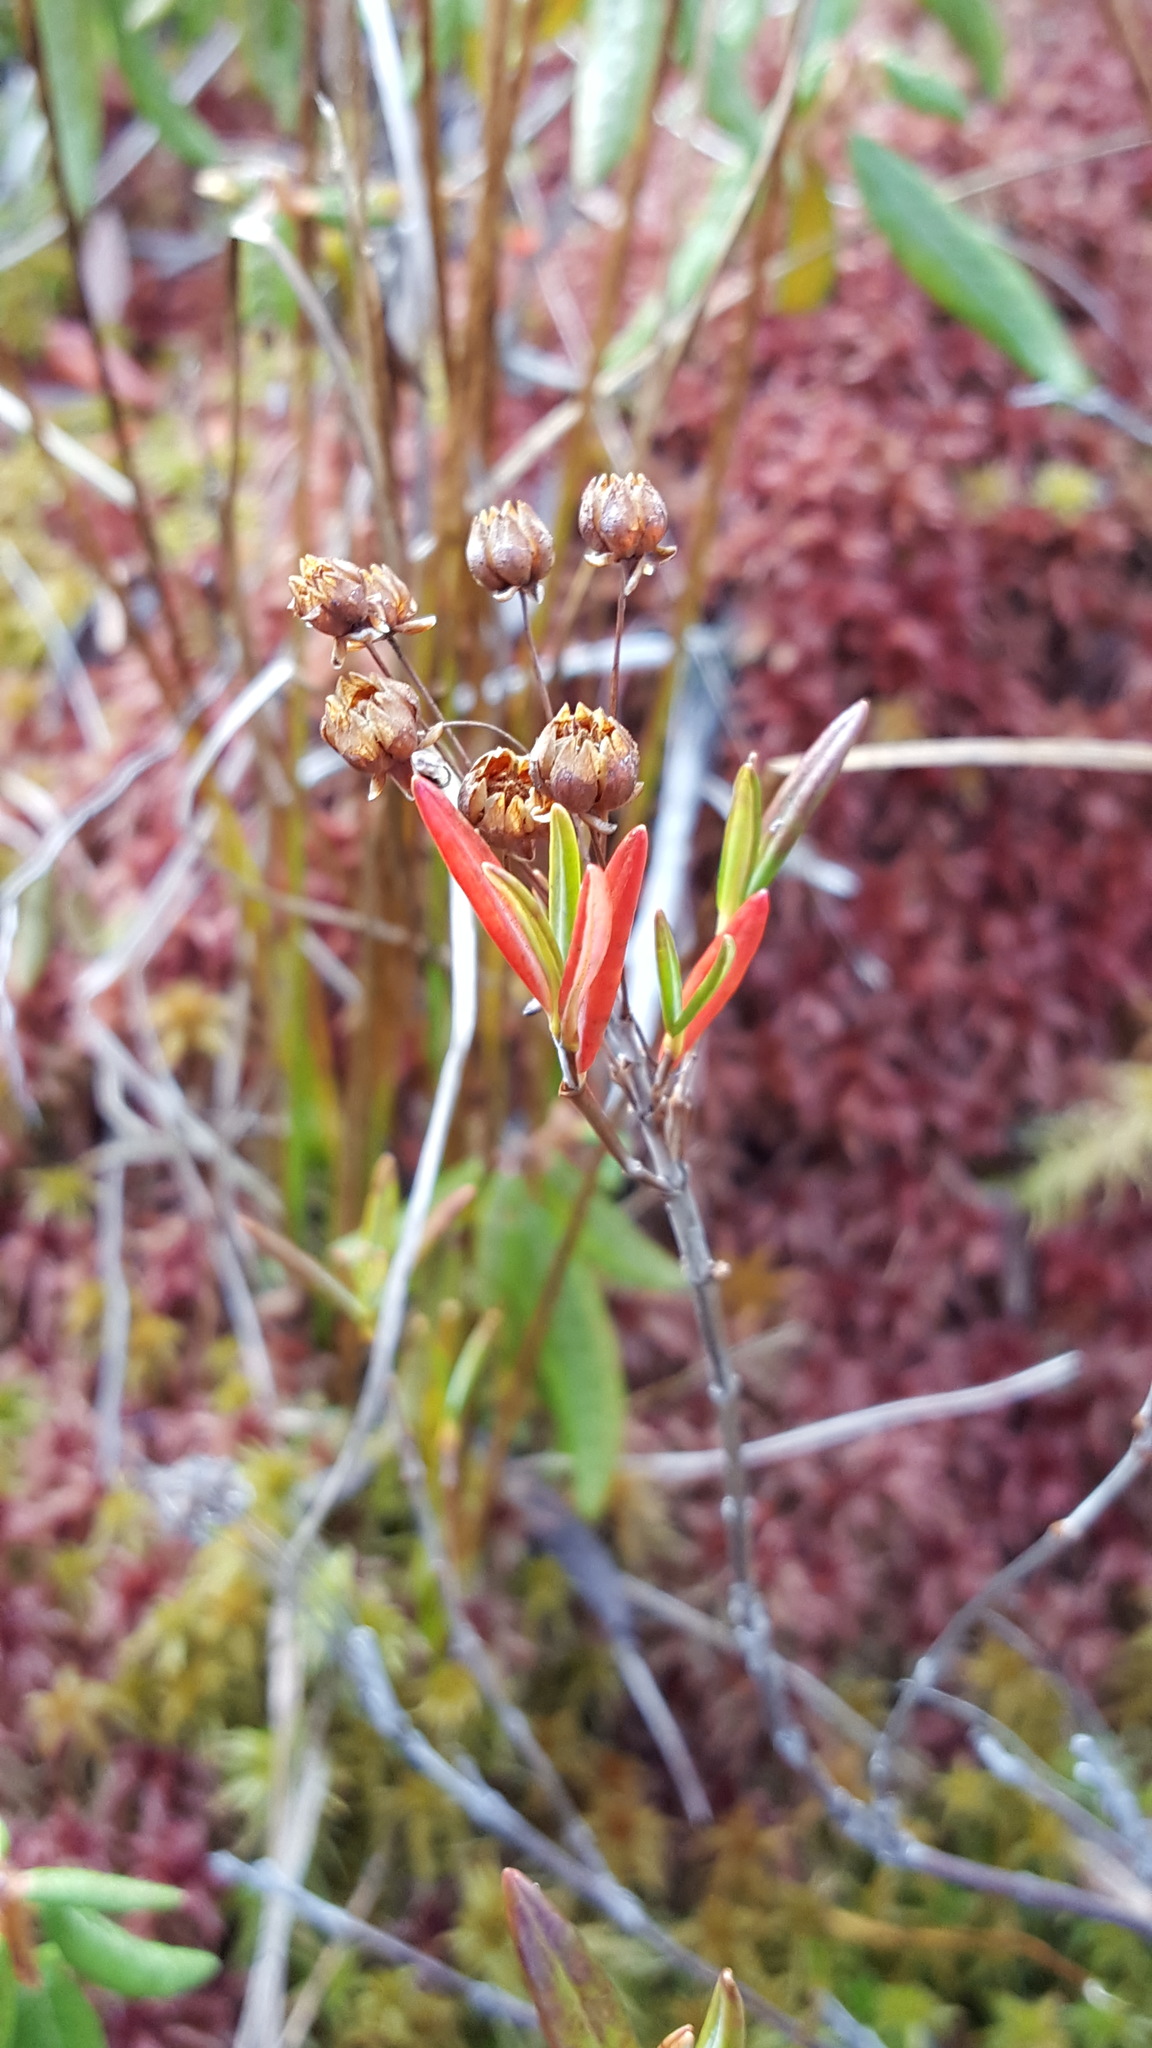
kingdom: Plantae
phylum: Tracheophyta
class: Magnoliopsida
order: Ericales
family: Ericaceae
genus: Kalmia
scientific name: Kalmia polifolia
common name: Bog-laurel
